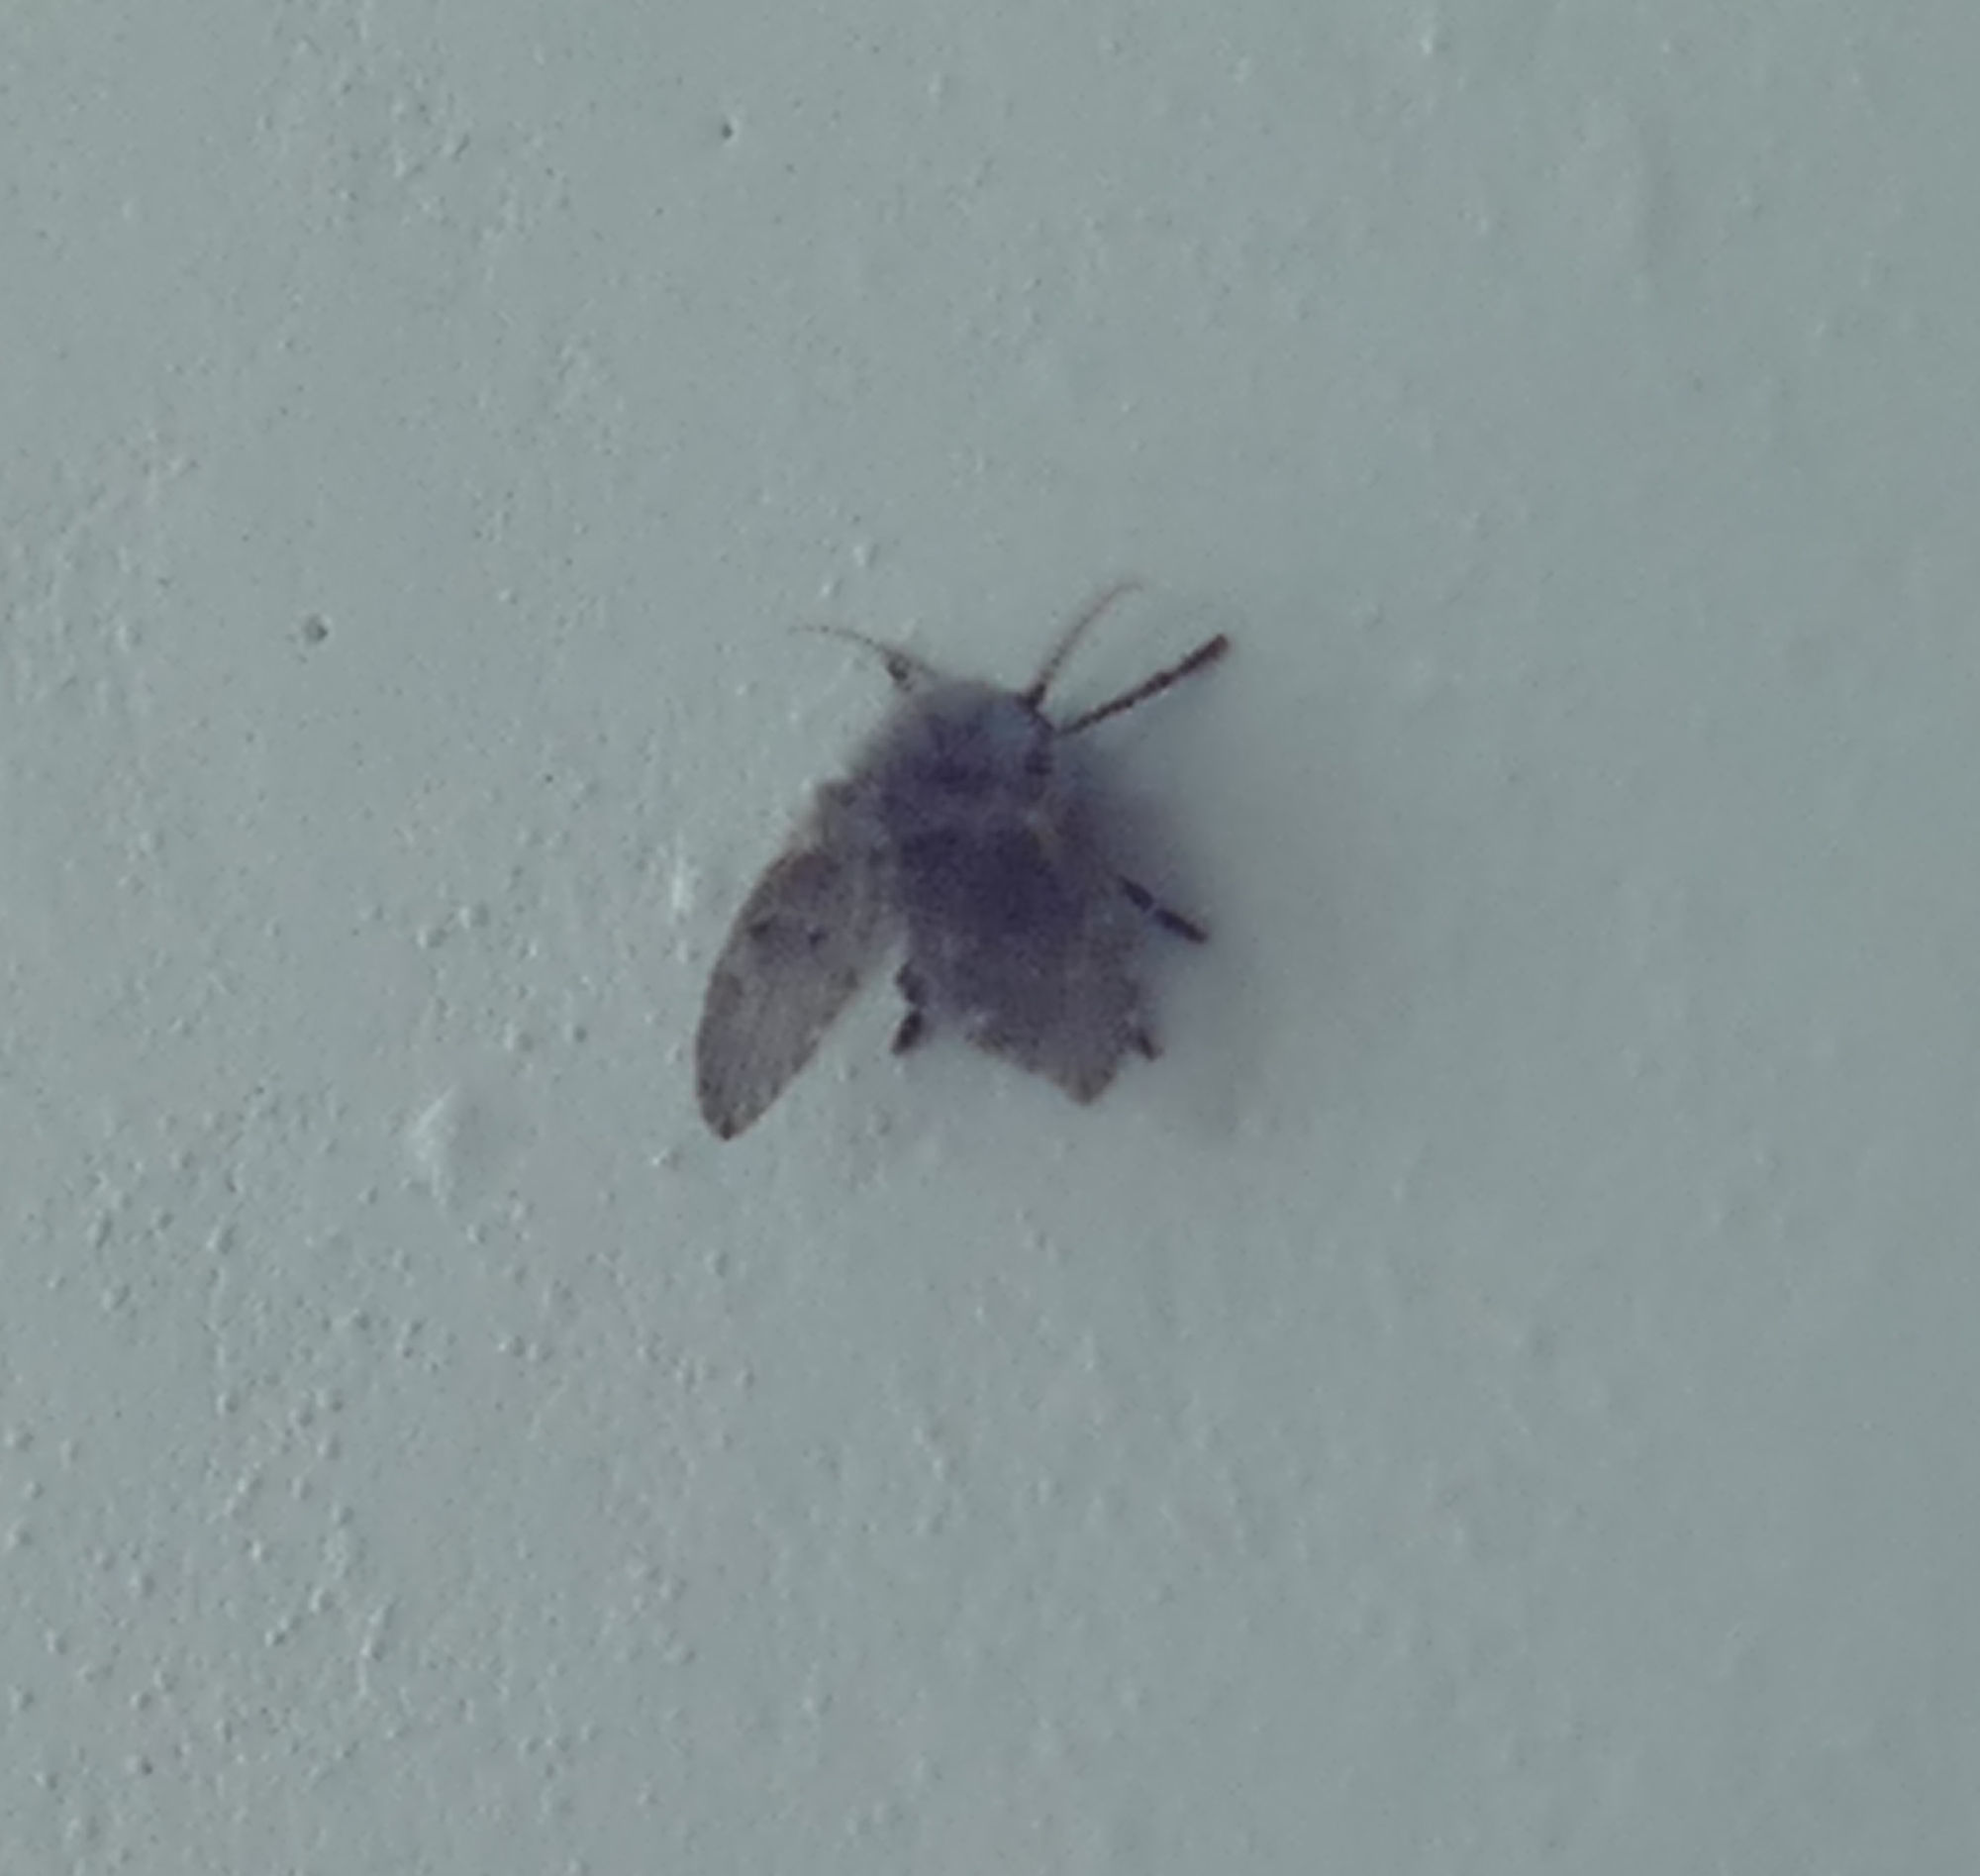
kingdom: Animalia
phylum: Arthropoda
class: Insecta
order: Diptera
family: Psychodidae
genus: Clogmia
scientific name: Clogmia albipunctatus
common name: White-spotted moth fly
